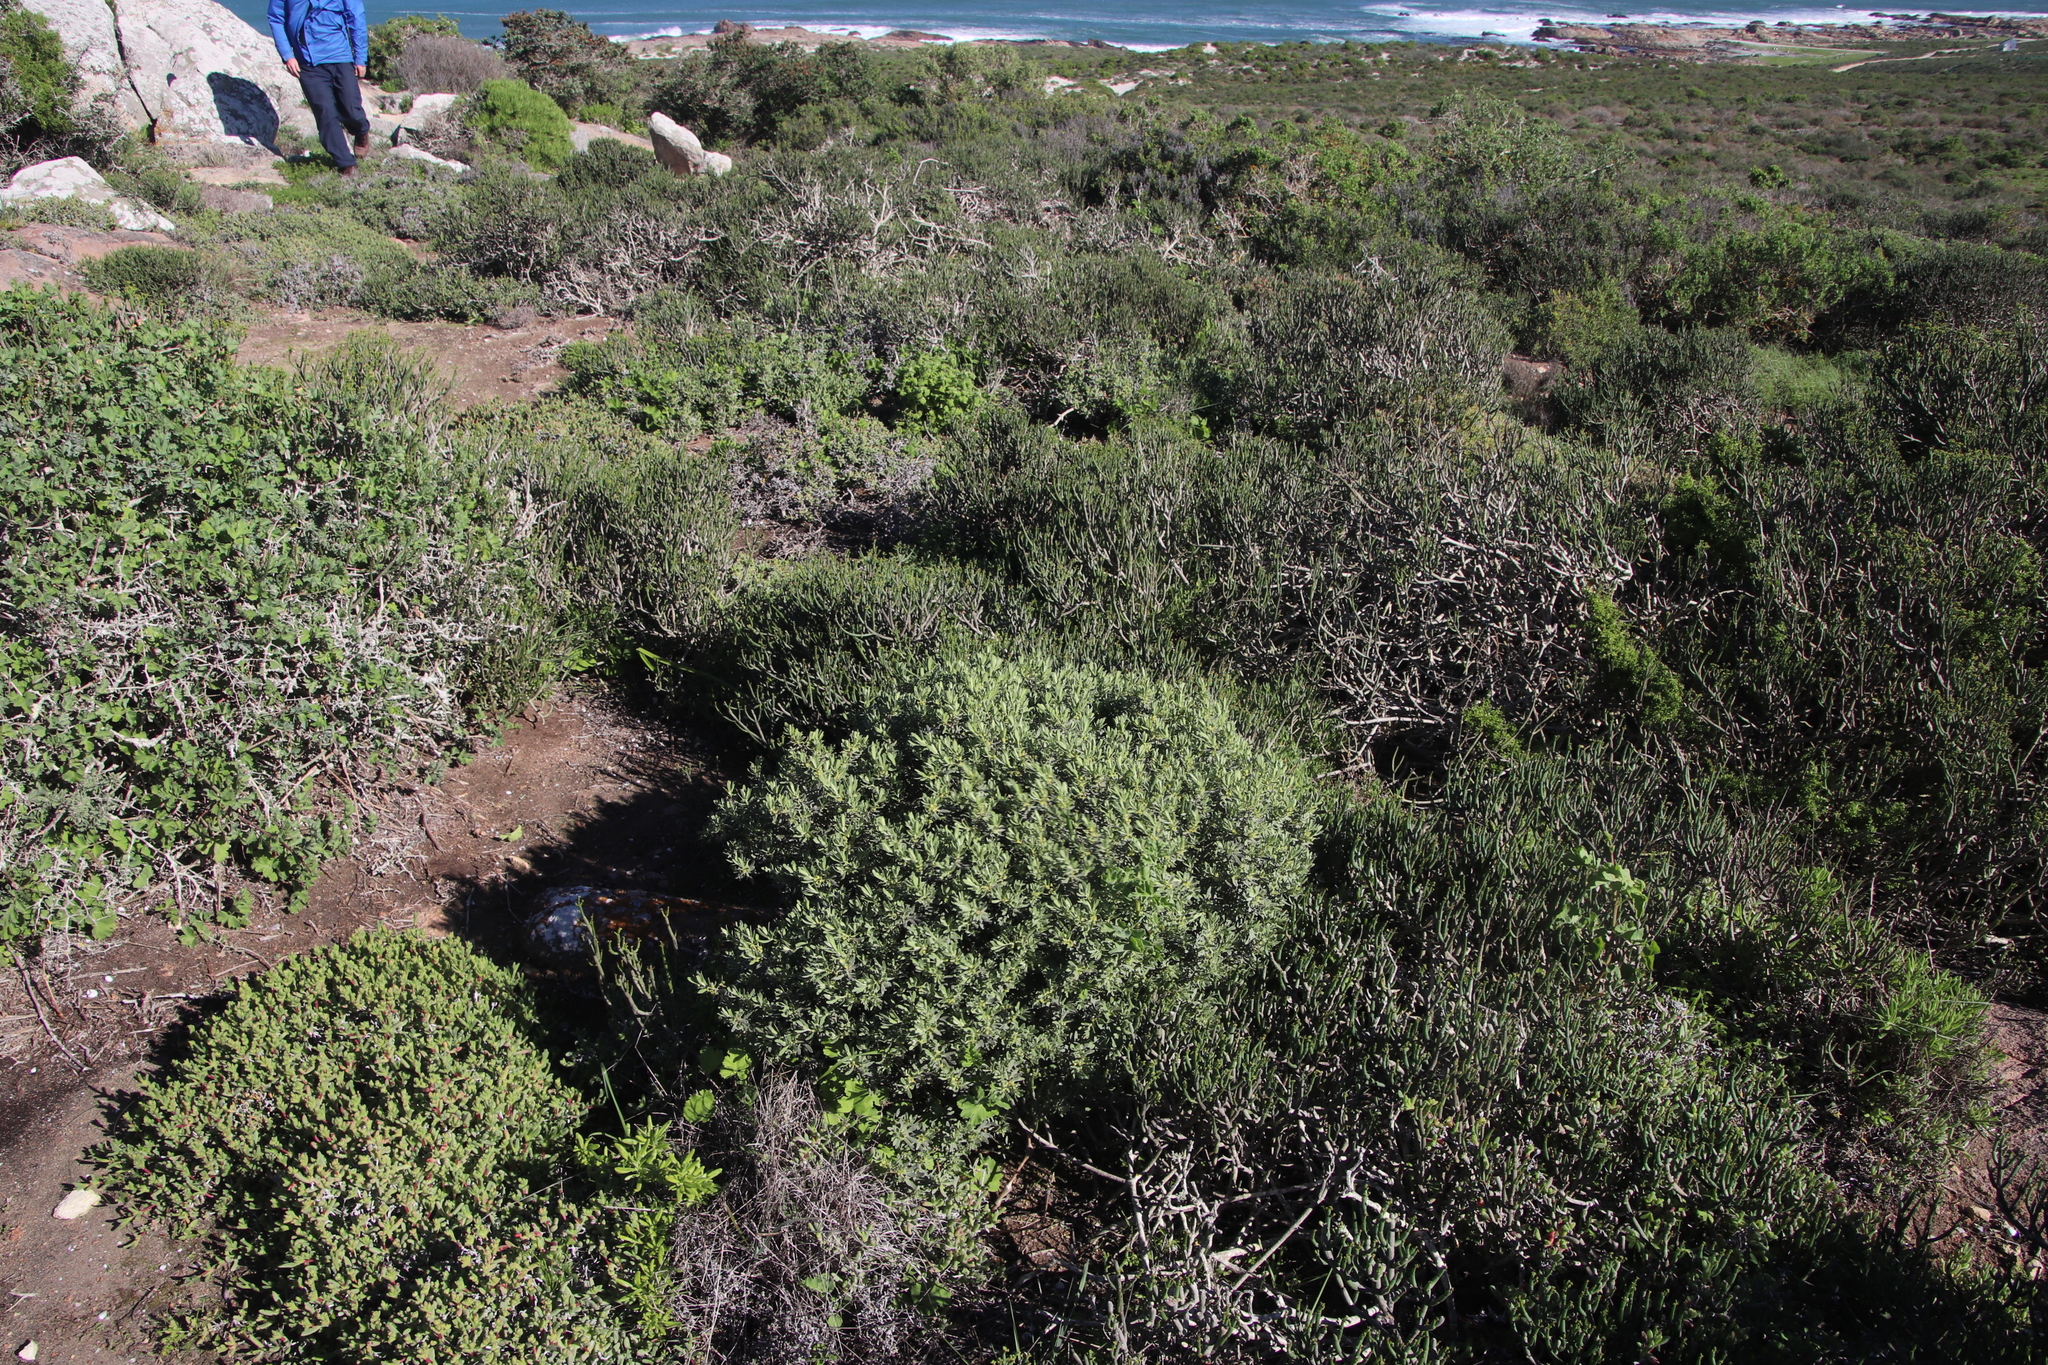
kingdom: Plantae
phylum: Tracheophyta
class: Magnoliopsida
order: Malpighiales
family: Peraceae
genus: Clutia
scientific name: Clutia daphnoides
